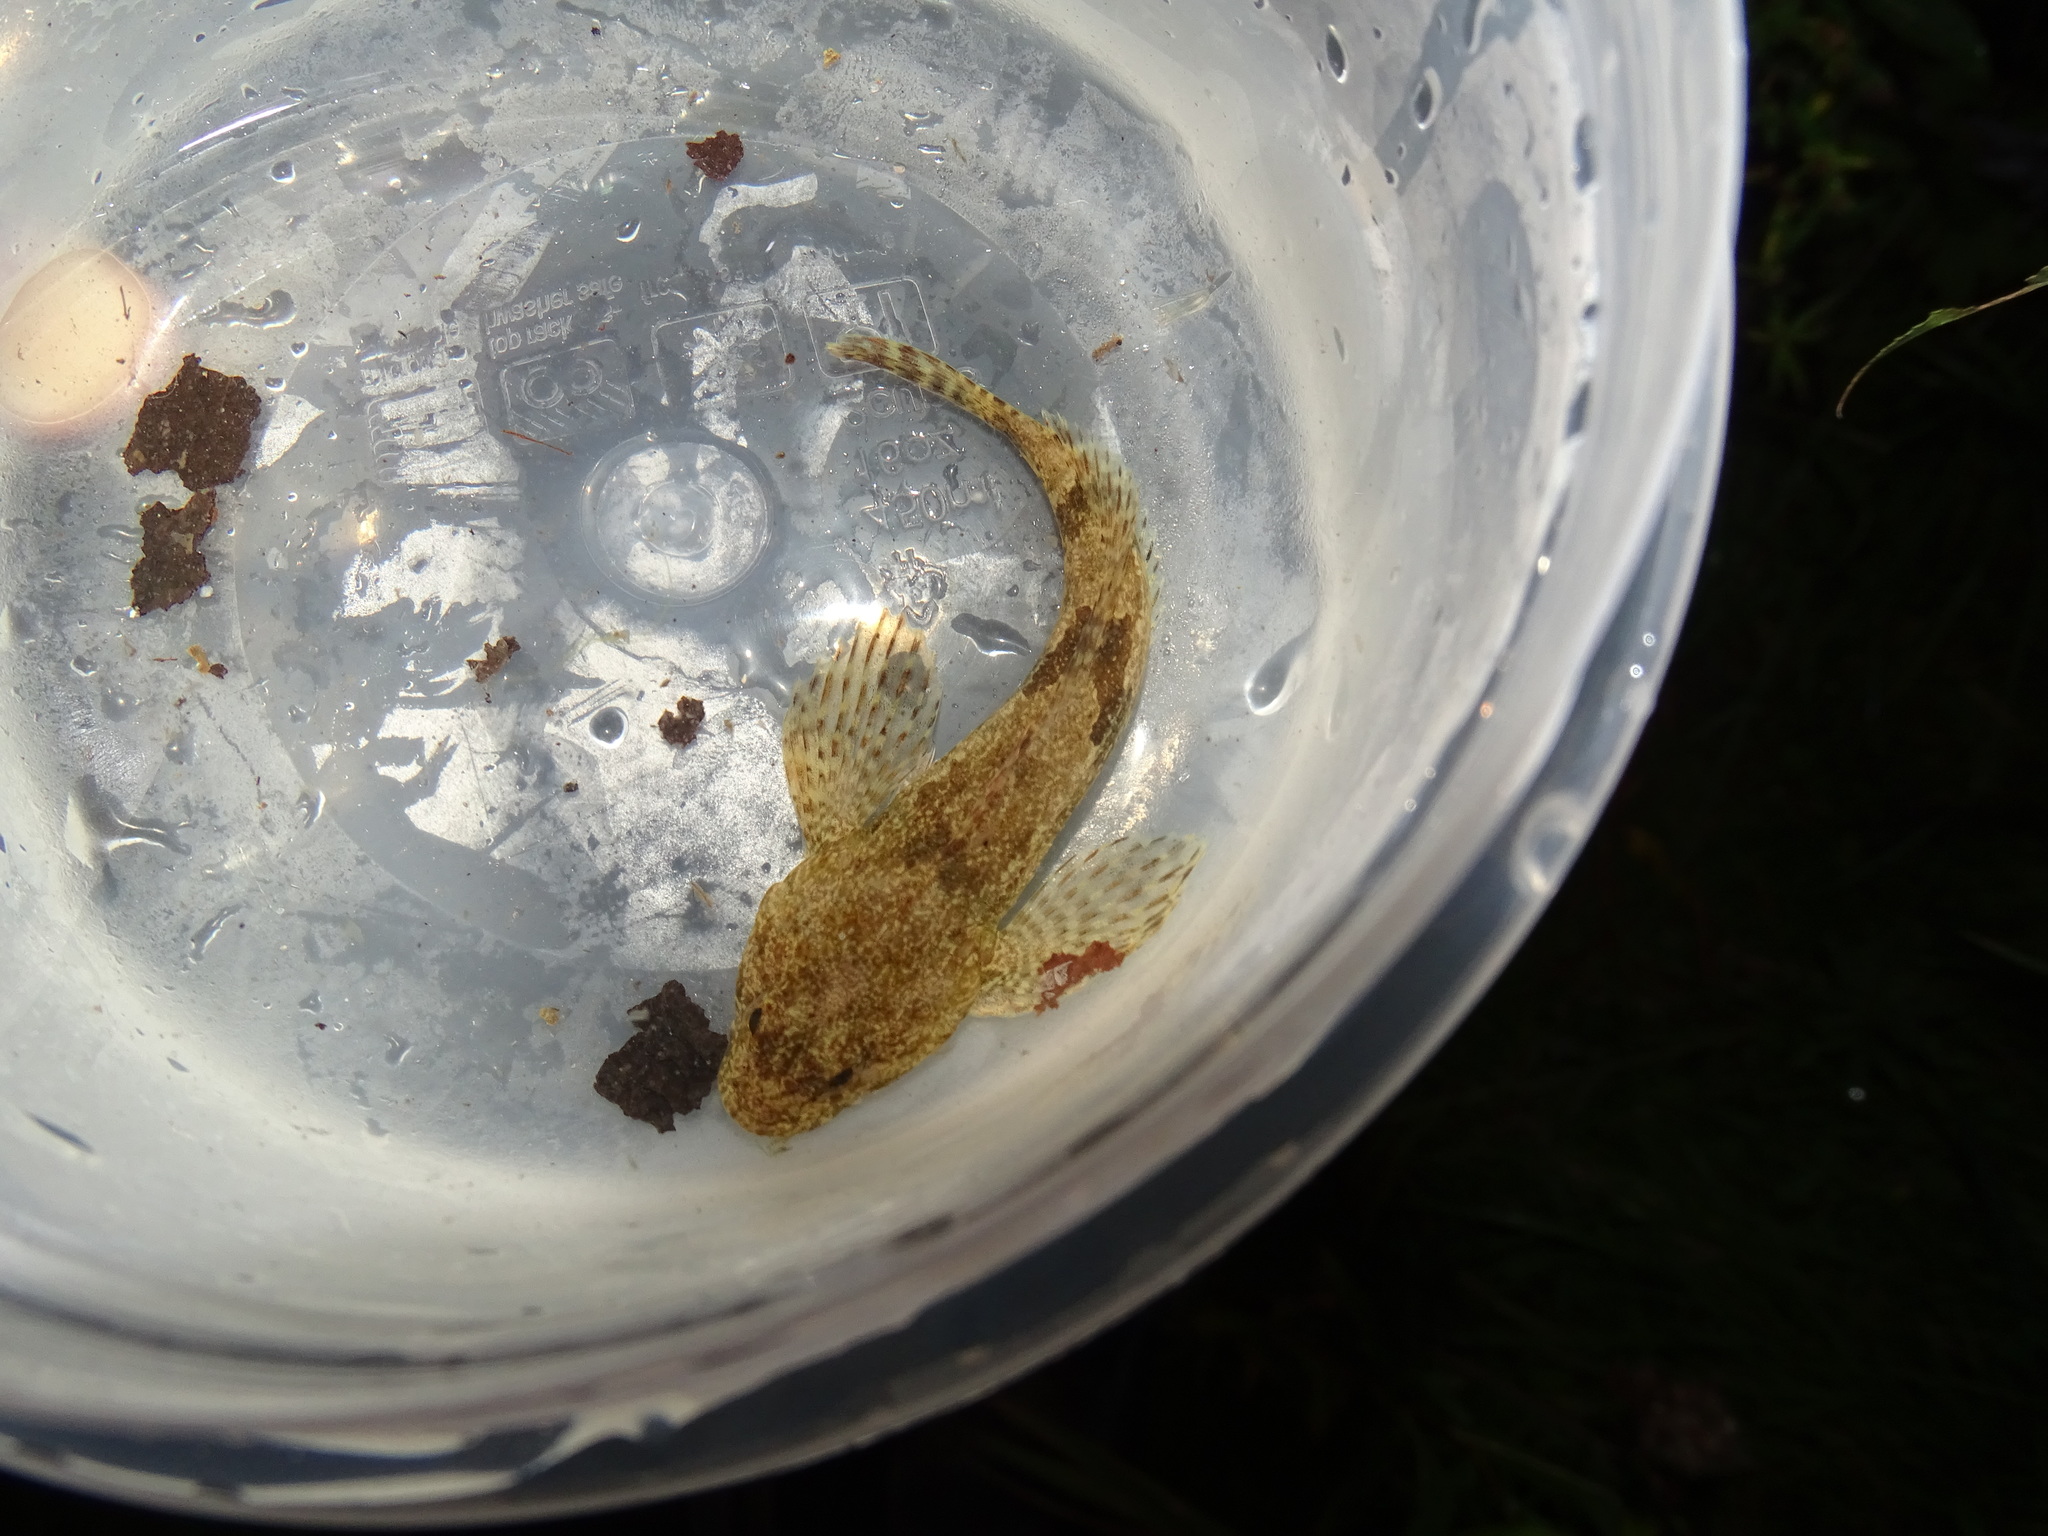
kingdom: Animalia
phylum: Chordata
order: Scorpaeniformes
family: Cottidae
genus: Cottus
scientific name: Cottus bairdii
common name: Mottled sculpin
